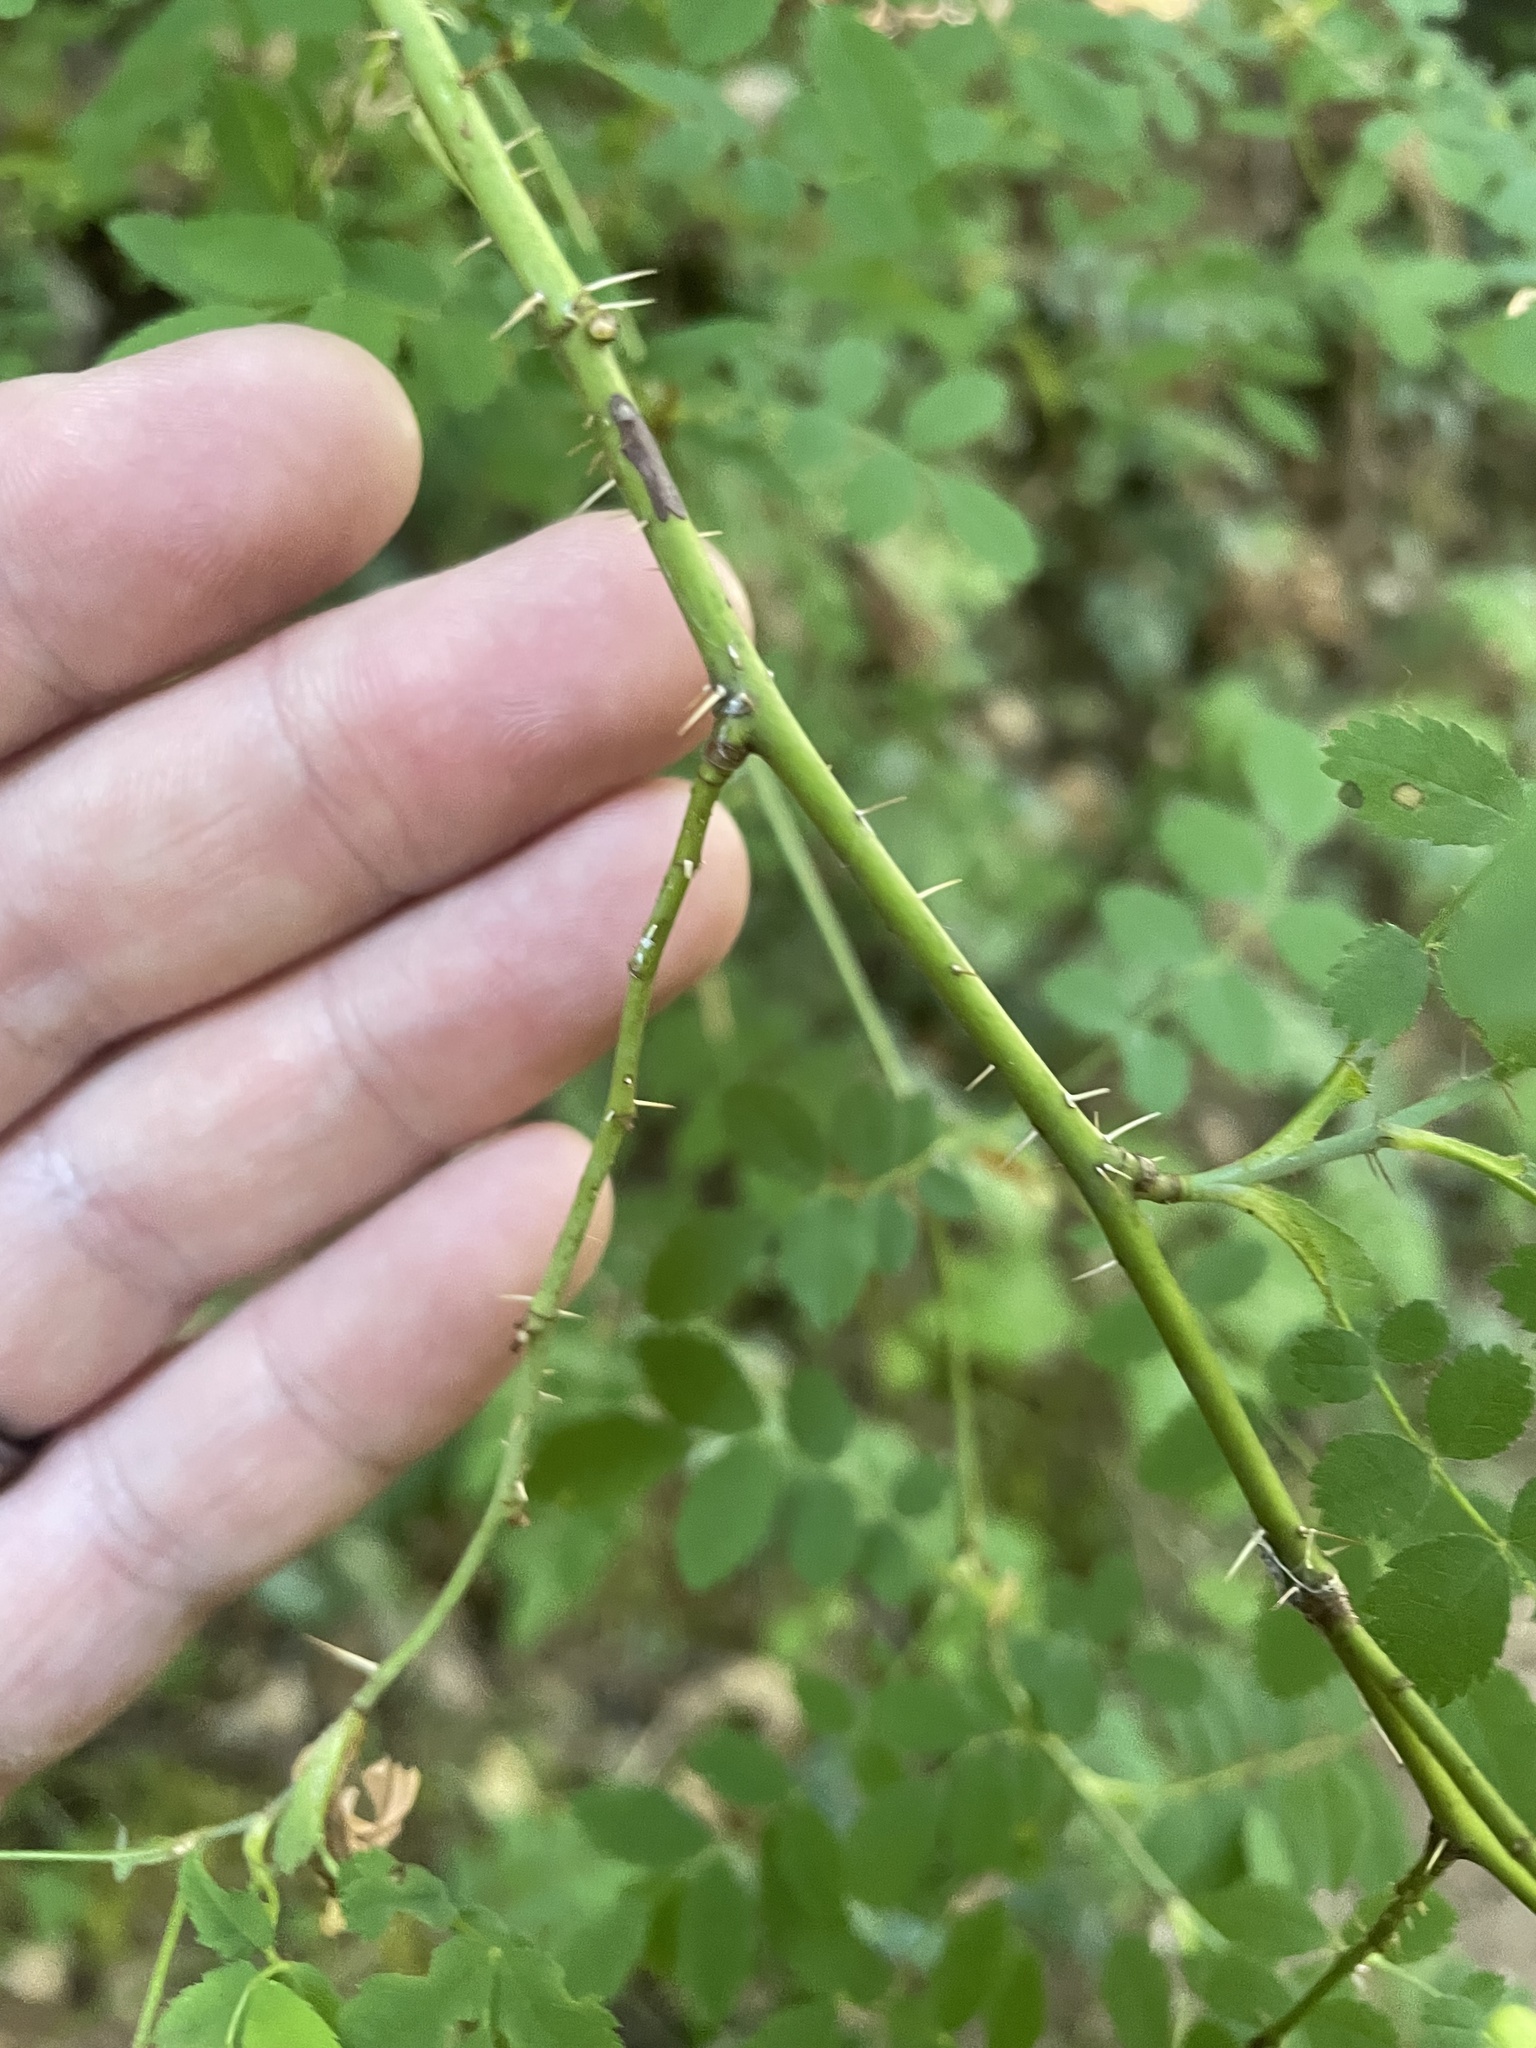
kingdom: Plantae
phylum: Tracheophyta
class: Magnoliopsida
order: Rosales
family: Rosaceae
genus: Rosa
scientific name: Rosa gymnocarpa
